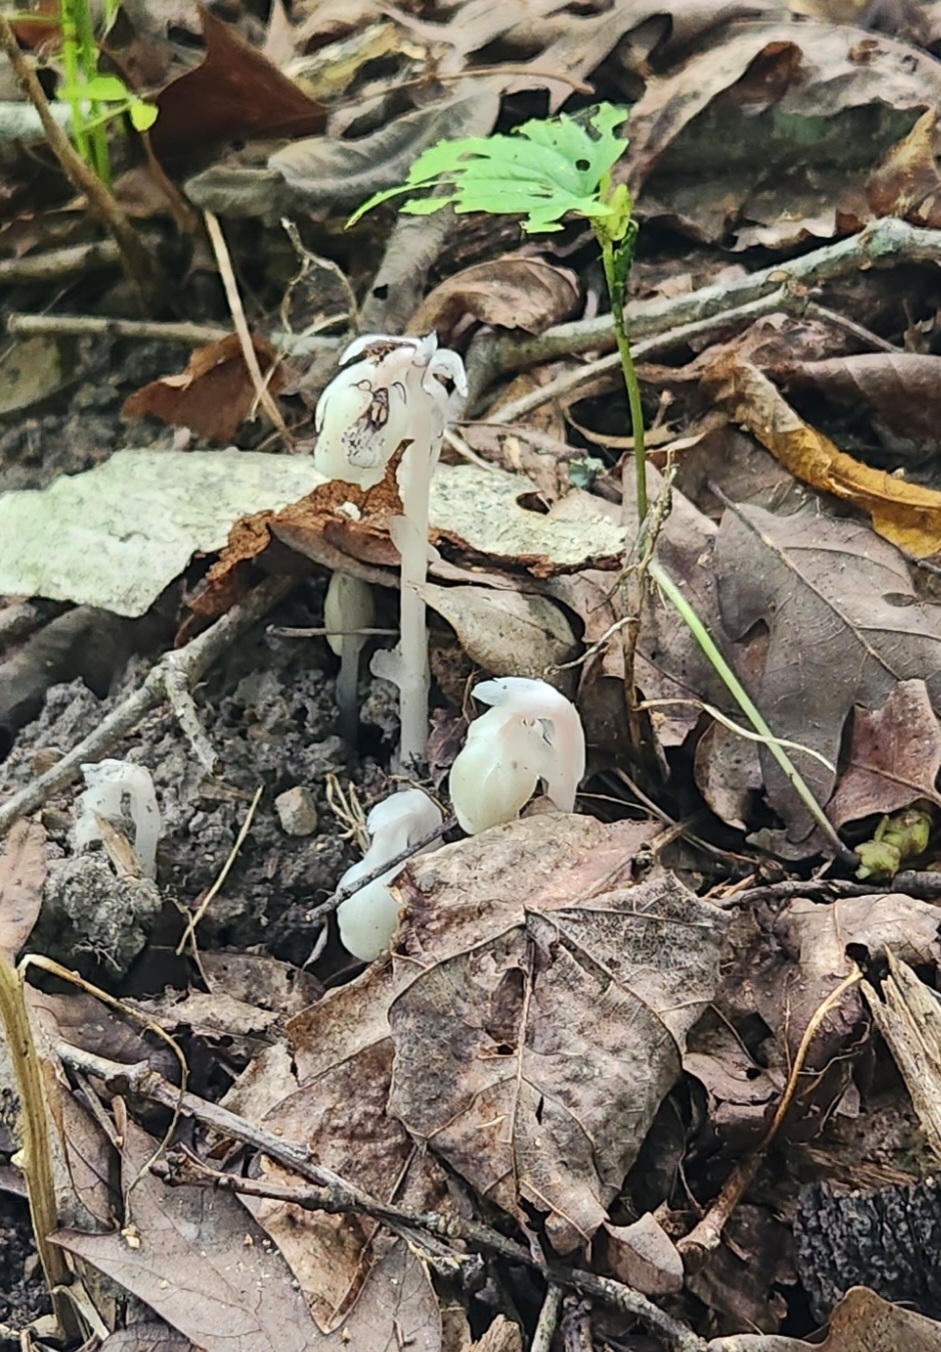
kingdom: Plantae
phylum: Tracheophyta
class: Magnoliopsida
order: Ericales
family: Ericaceae
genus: Monotropa
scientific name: Monotropa uniflora
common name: Convulsion root
